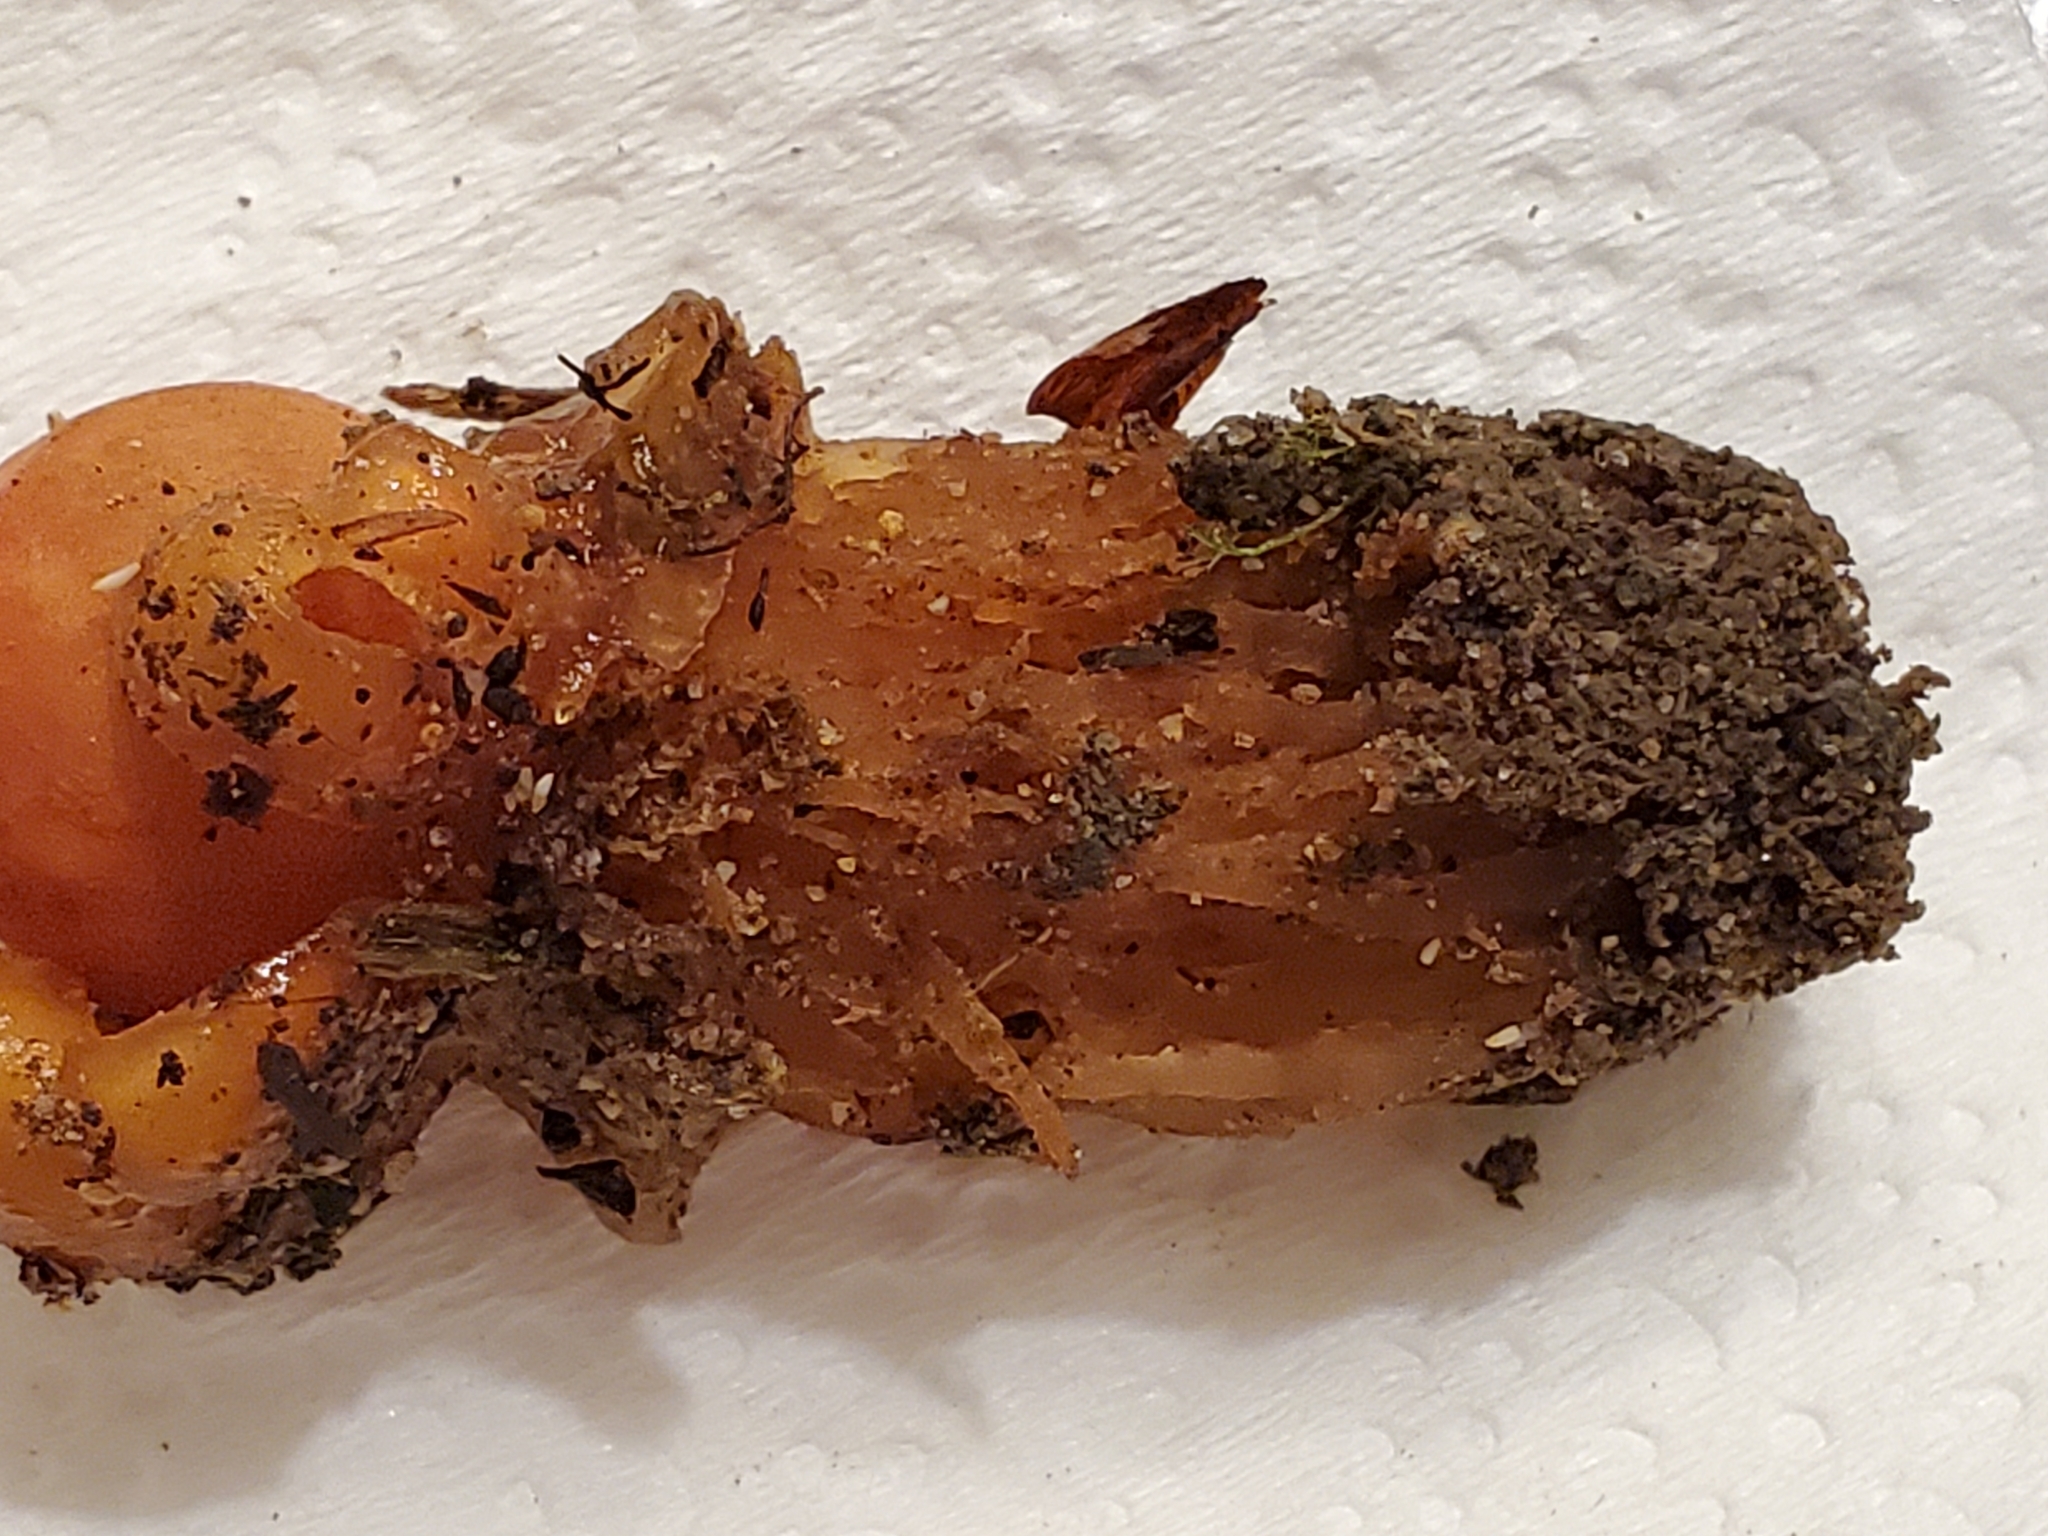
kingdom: Fungi
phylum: Basidiomycota
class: Agaricomycetes
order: Boletales
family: Calostomataceae
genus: Calostoma
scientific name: Calostoma cinnabarinum
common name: Stalked puffball-in-aspic
